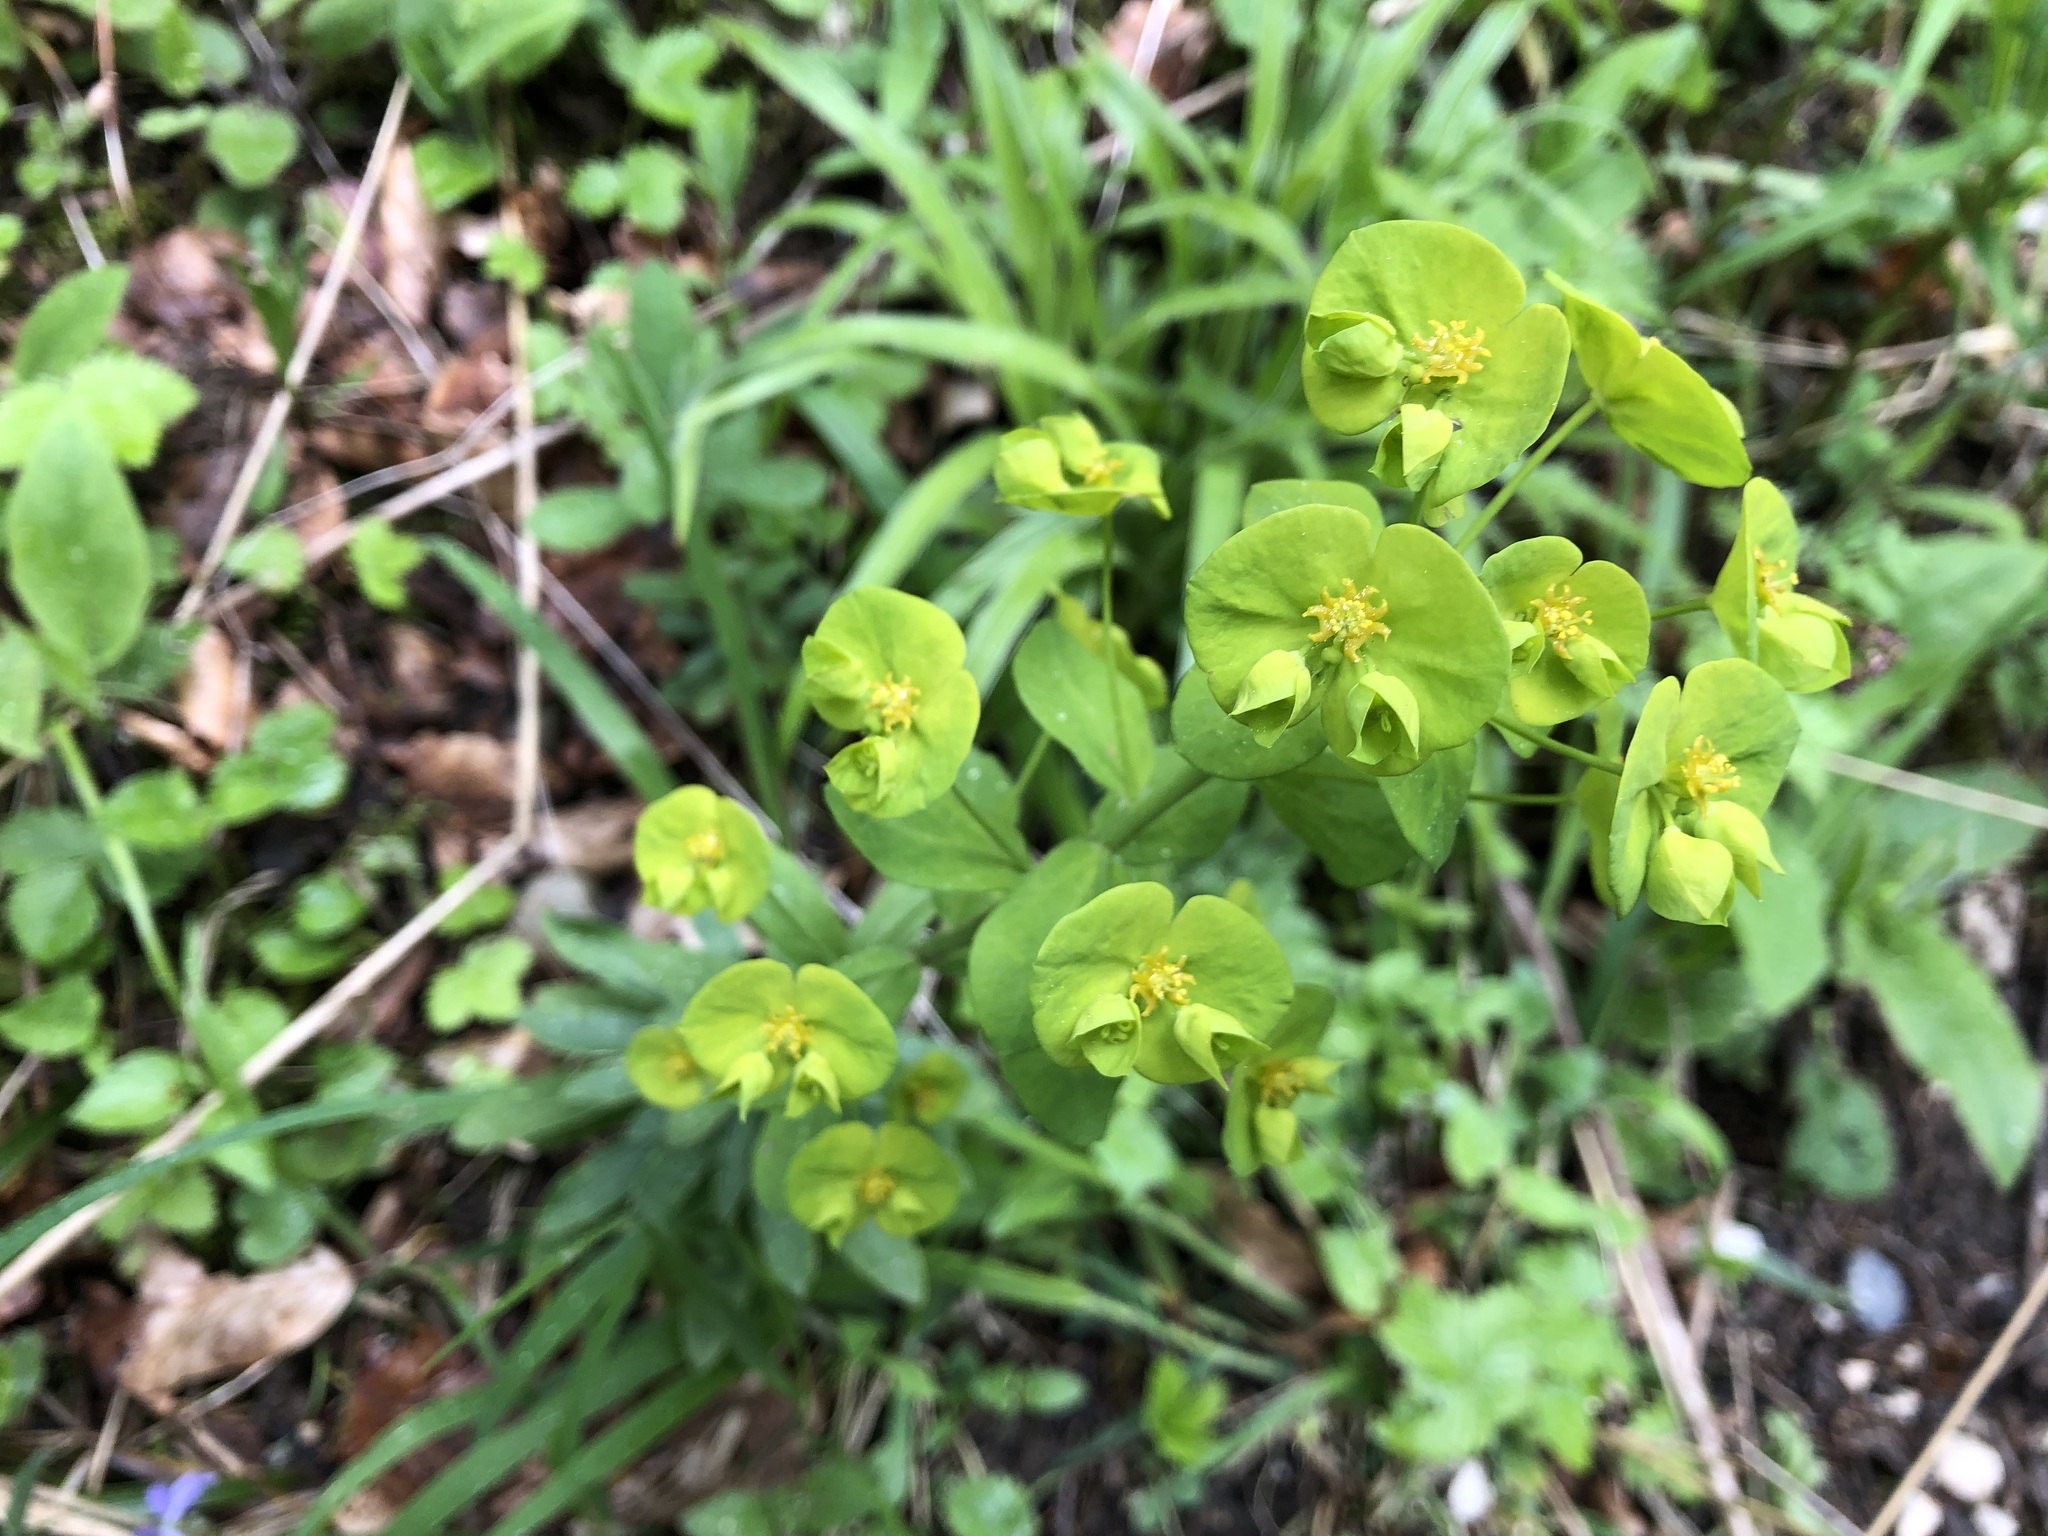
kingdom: Plantae
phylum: Tracheophyta
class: Magnoliopsida
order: Malpighiales
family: Euphorbiaceae
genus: Euphorbia
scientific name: Euphorbia amygdaloides
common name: Wood spurge
